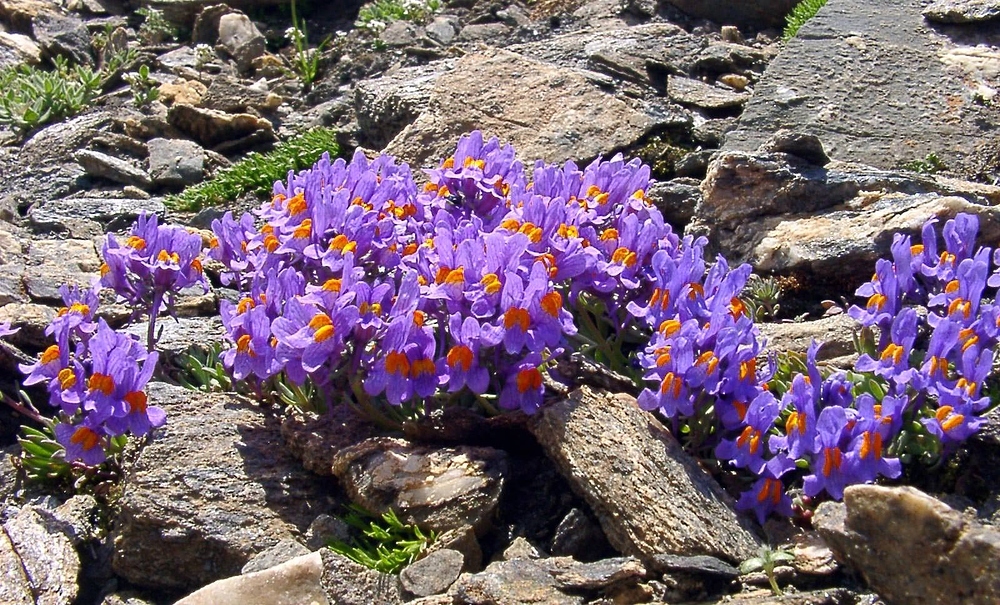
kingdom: Plantae
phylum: Tracheophyta
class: Magnoliopsida
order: Lamiales
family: Plantaginaceae
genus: Linaria
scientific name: Linaria alpina
